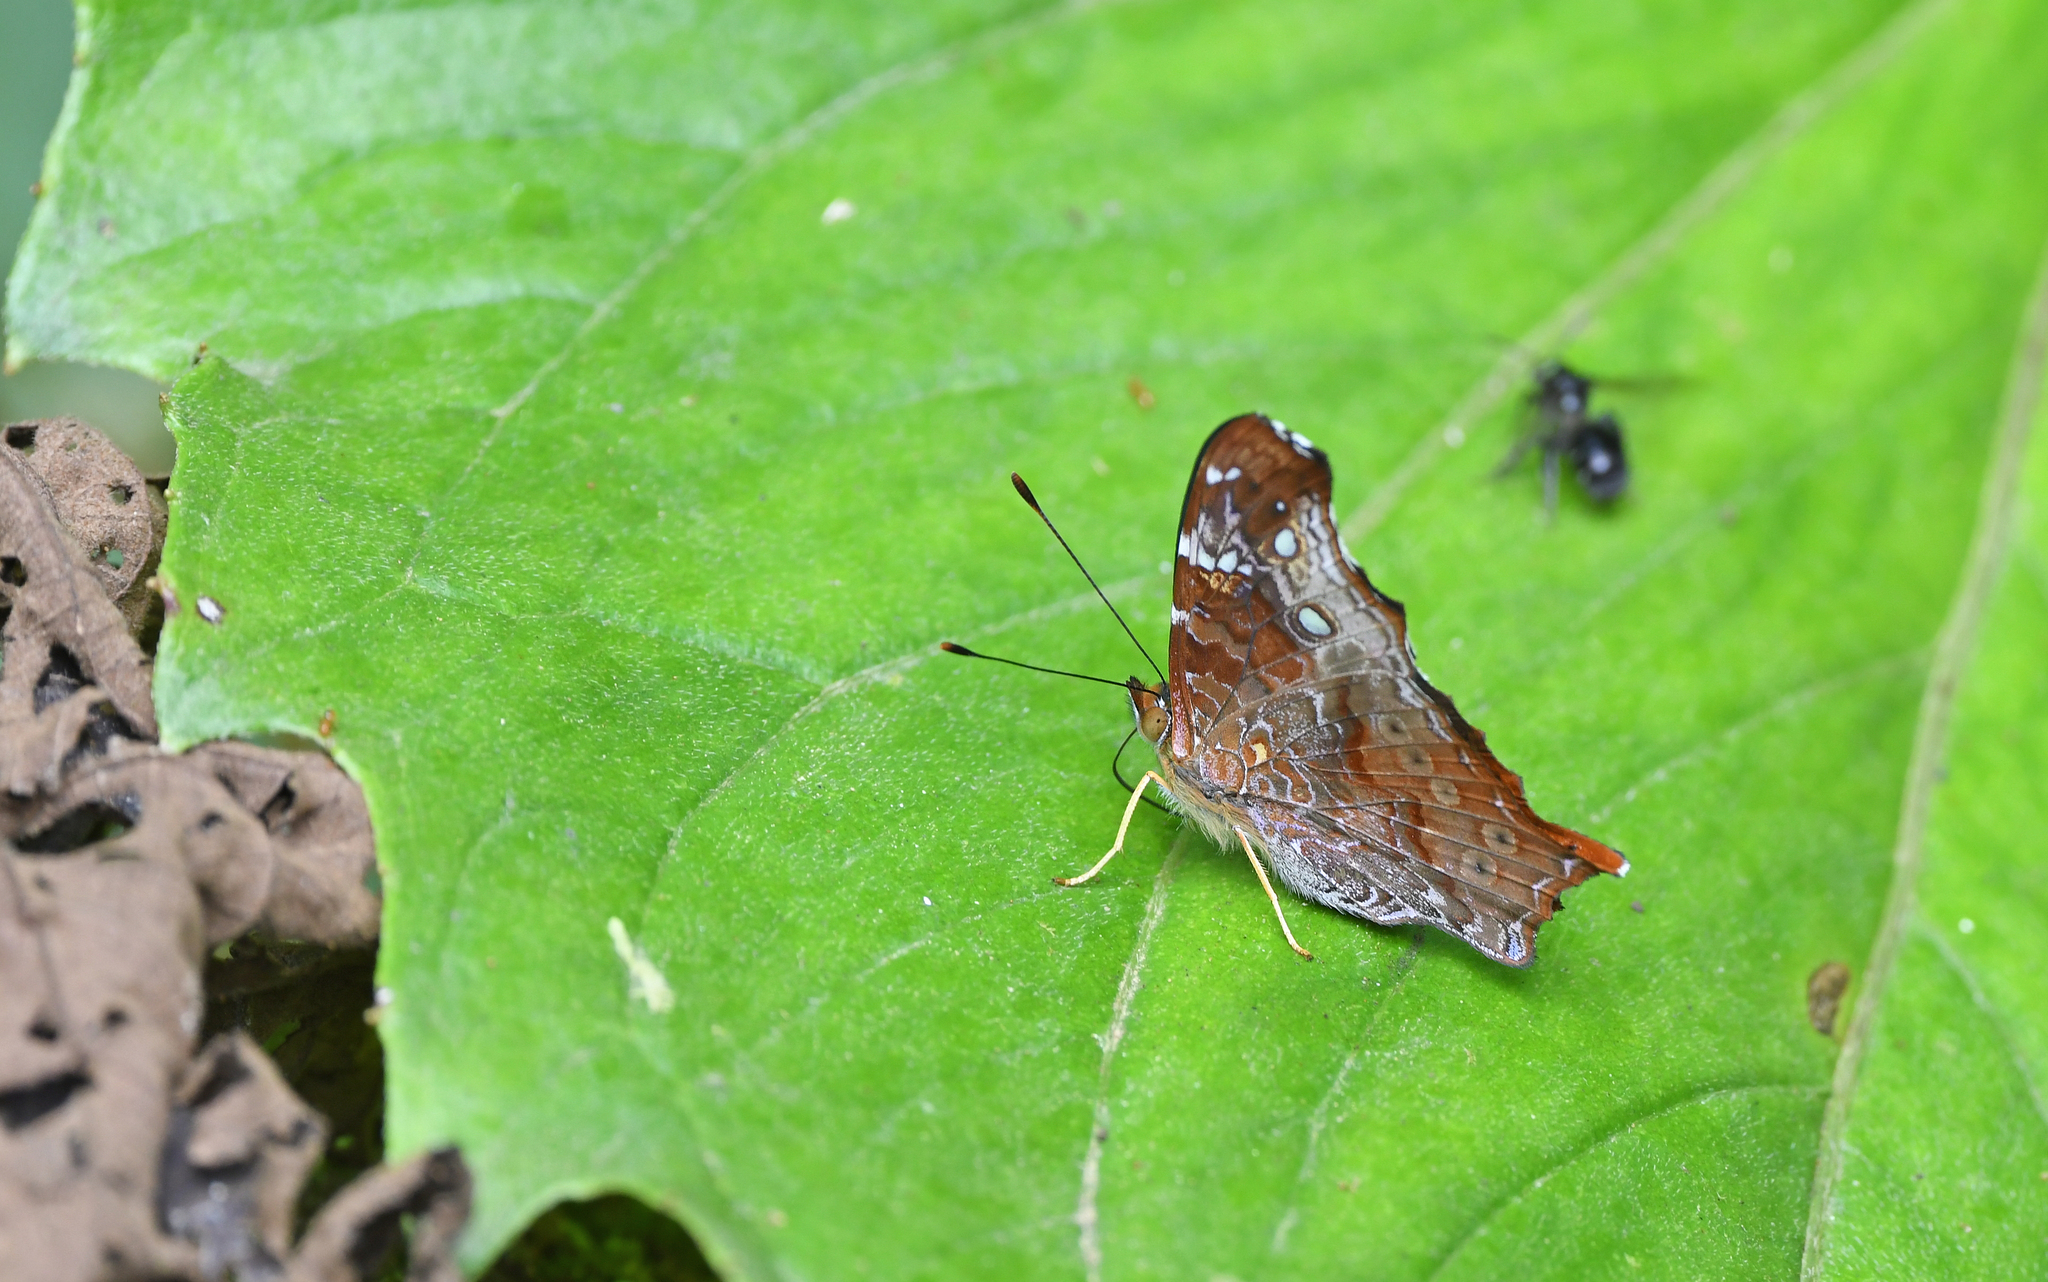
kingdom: Animalia
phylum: Arthropoda
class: Insecta
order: Lepidoptera
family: Nymphalidae
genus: Hypanartia
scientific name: Hypanartia kefersteini
